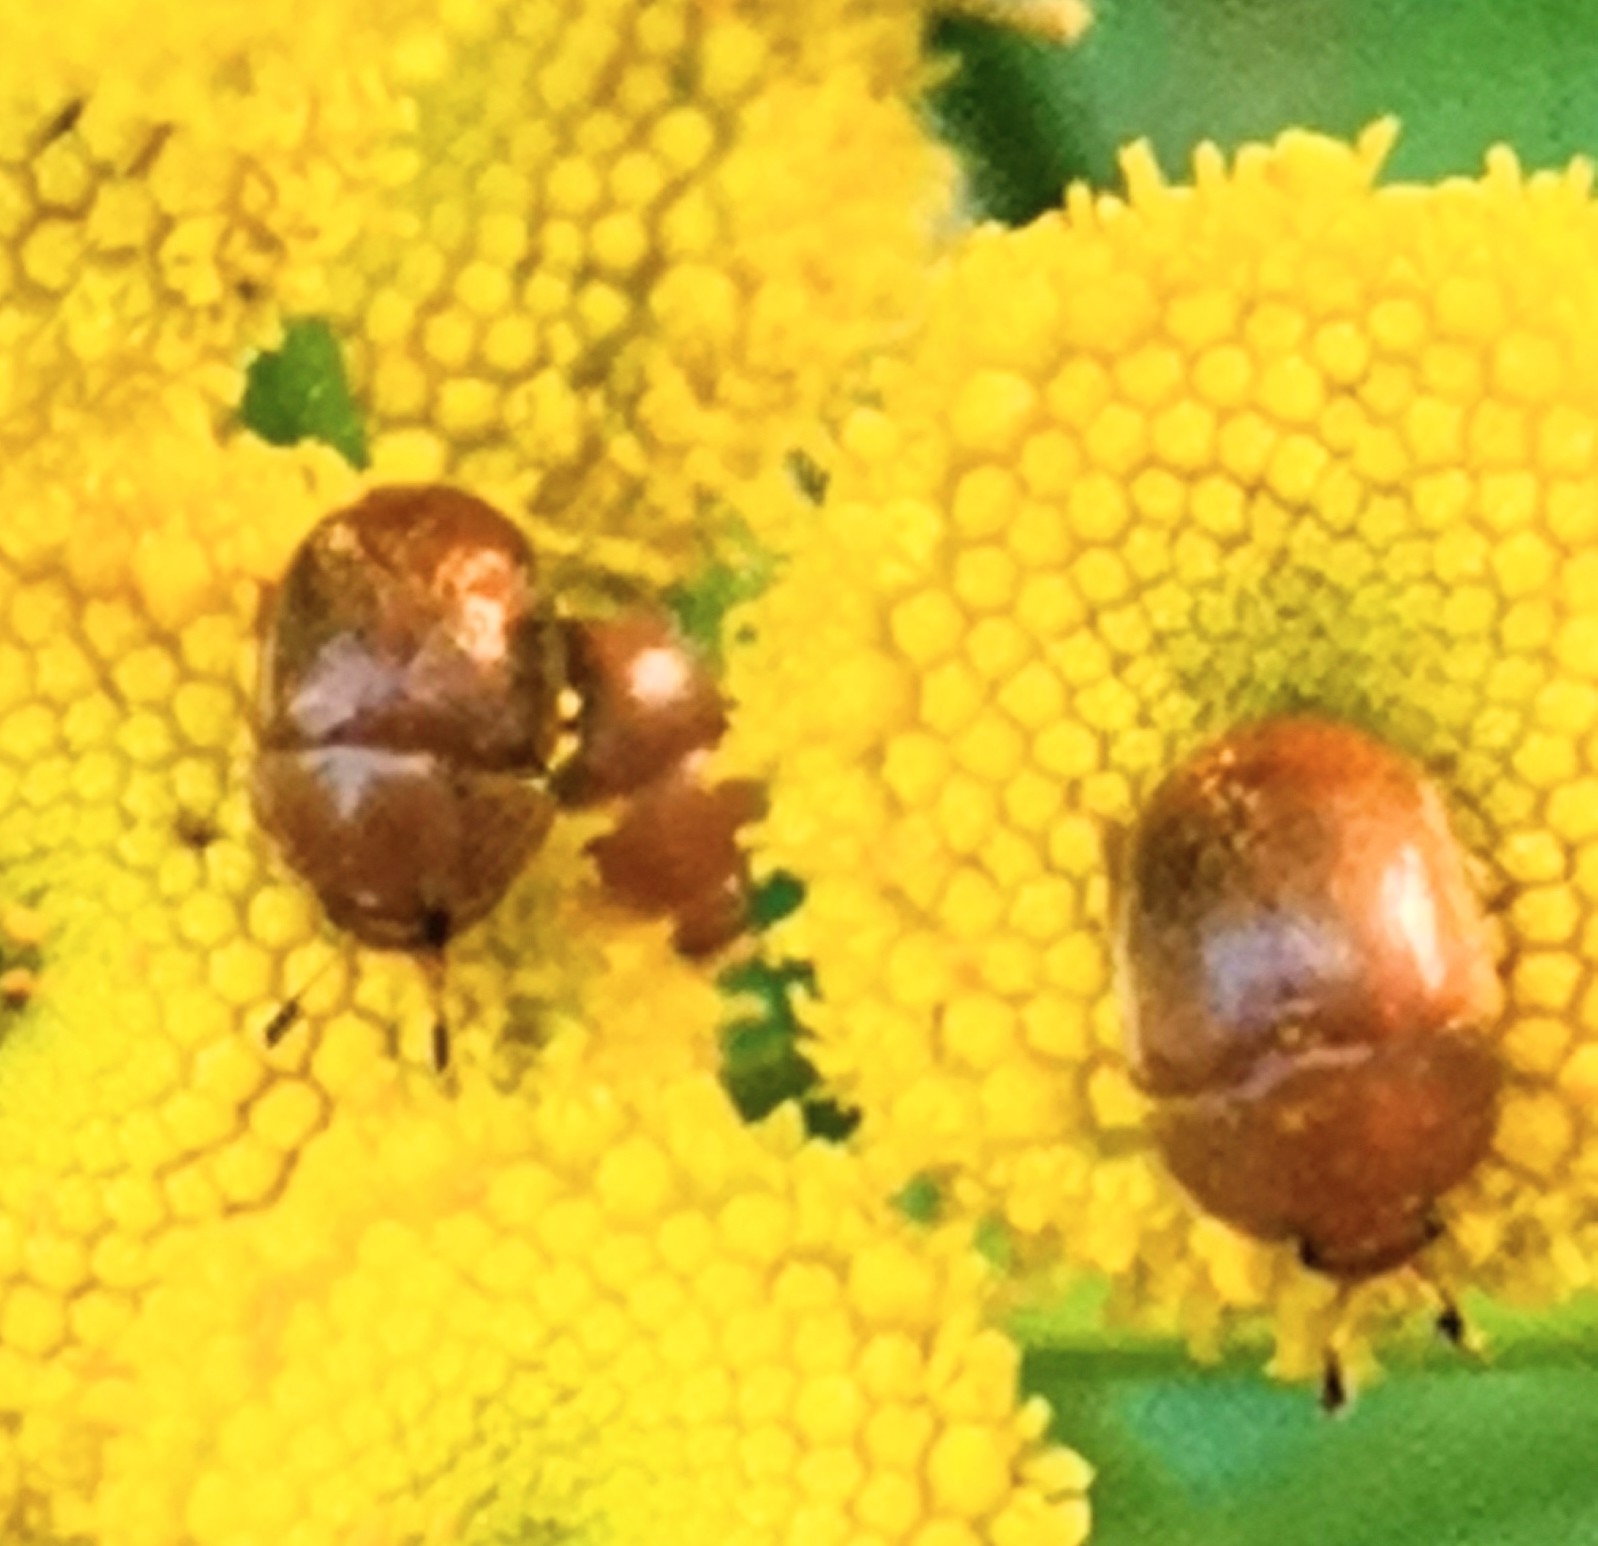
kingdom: Animalia
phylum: Arthropoda
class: Insecta
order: Coleoptera
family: Nitidulidae
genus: Cychramus
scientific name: Cychramus luteus
